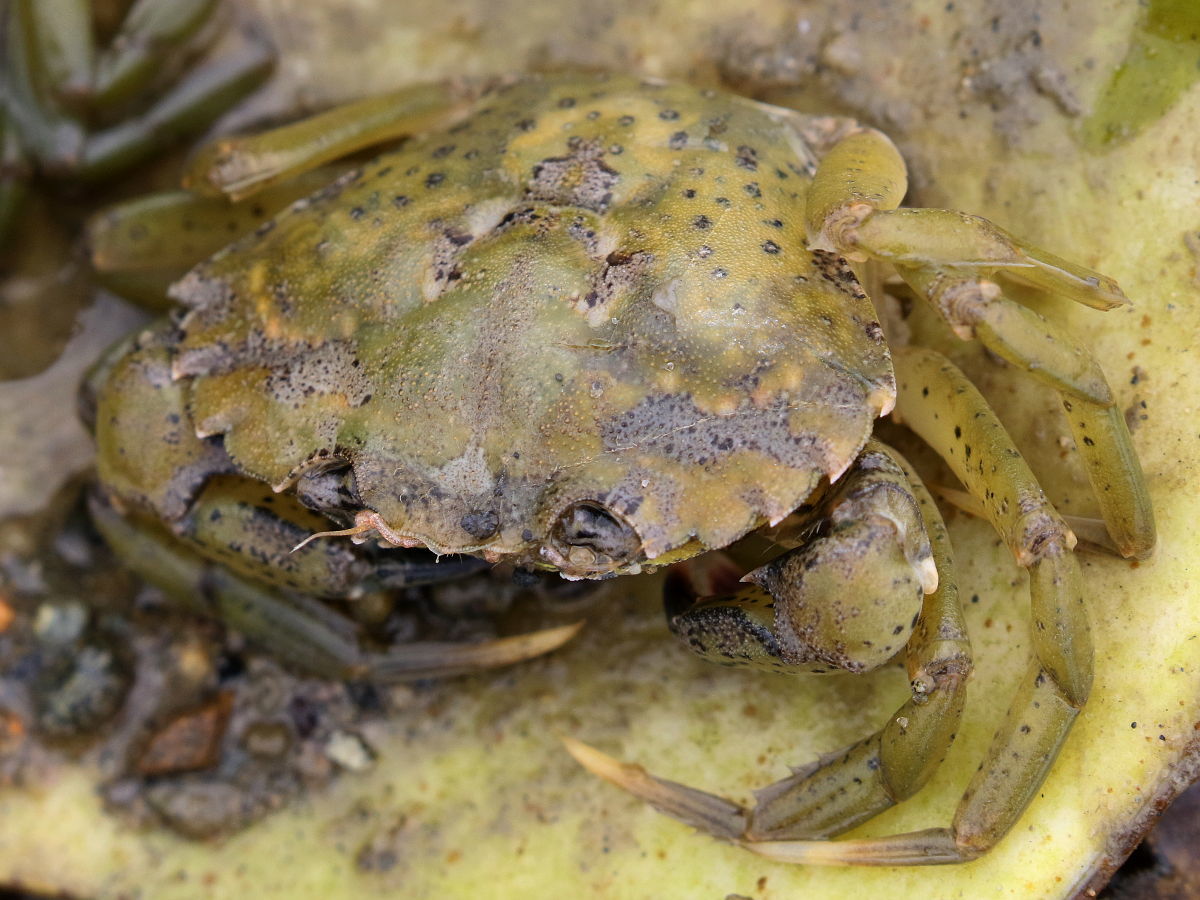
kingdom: Animalia
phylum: Arthropoda
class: Malacostraca
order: Decapoda
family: Carcinidae
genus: Carcinus
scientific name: Carcinus maenas
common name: European green crab
